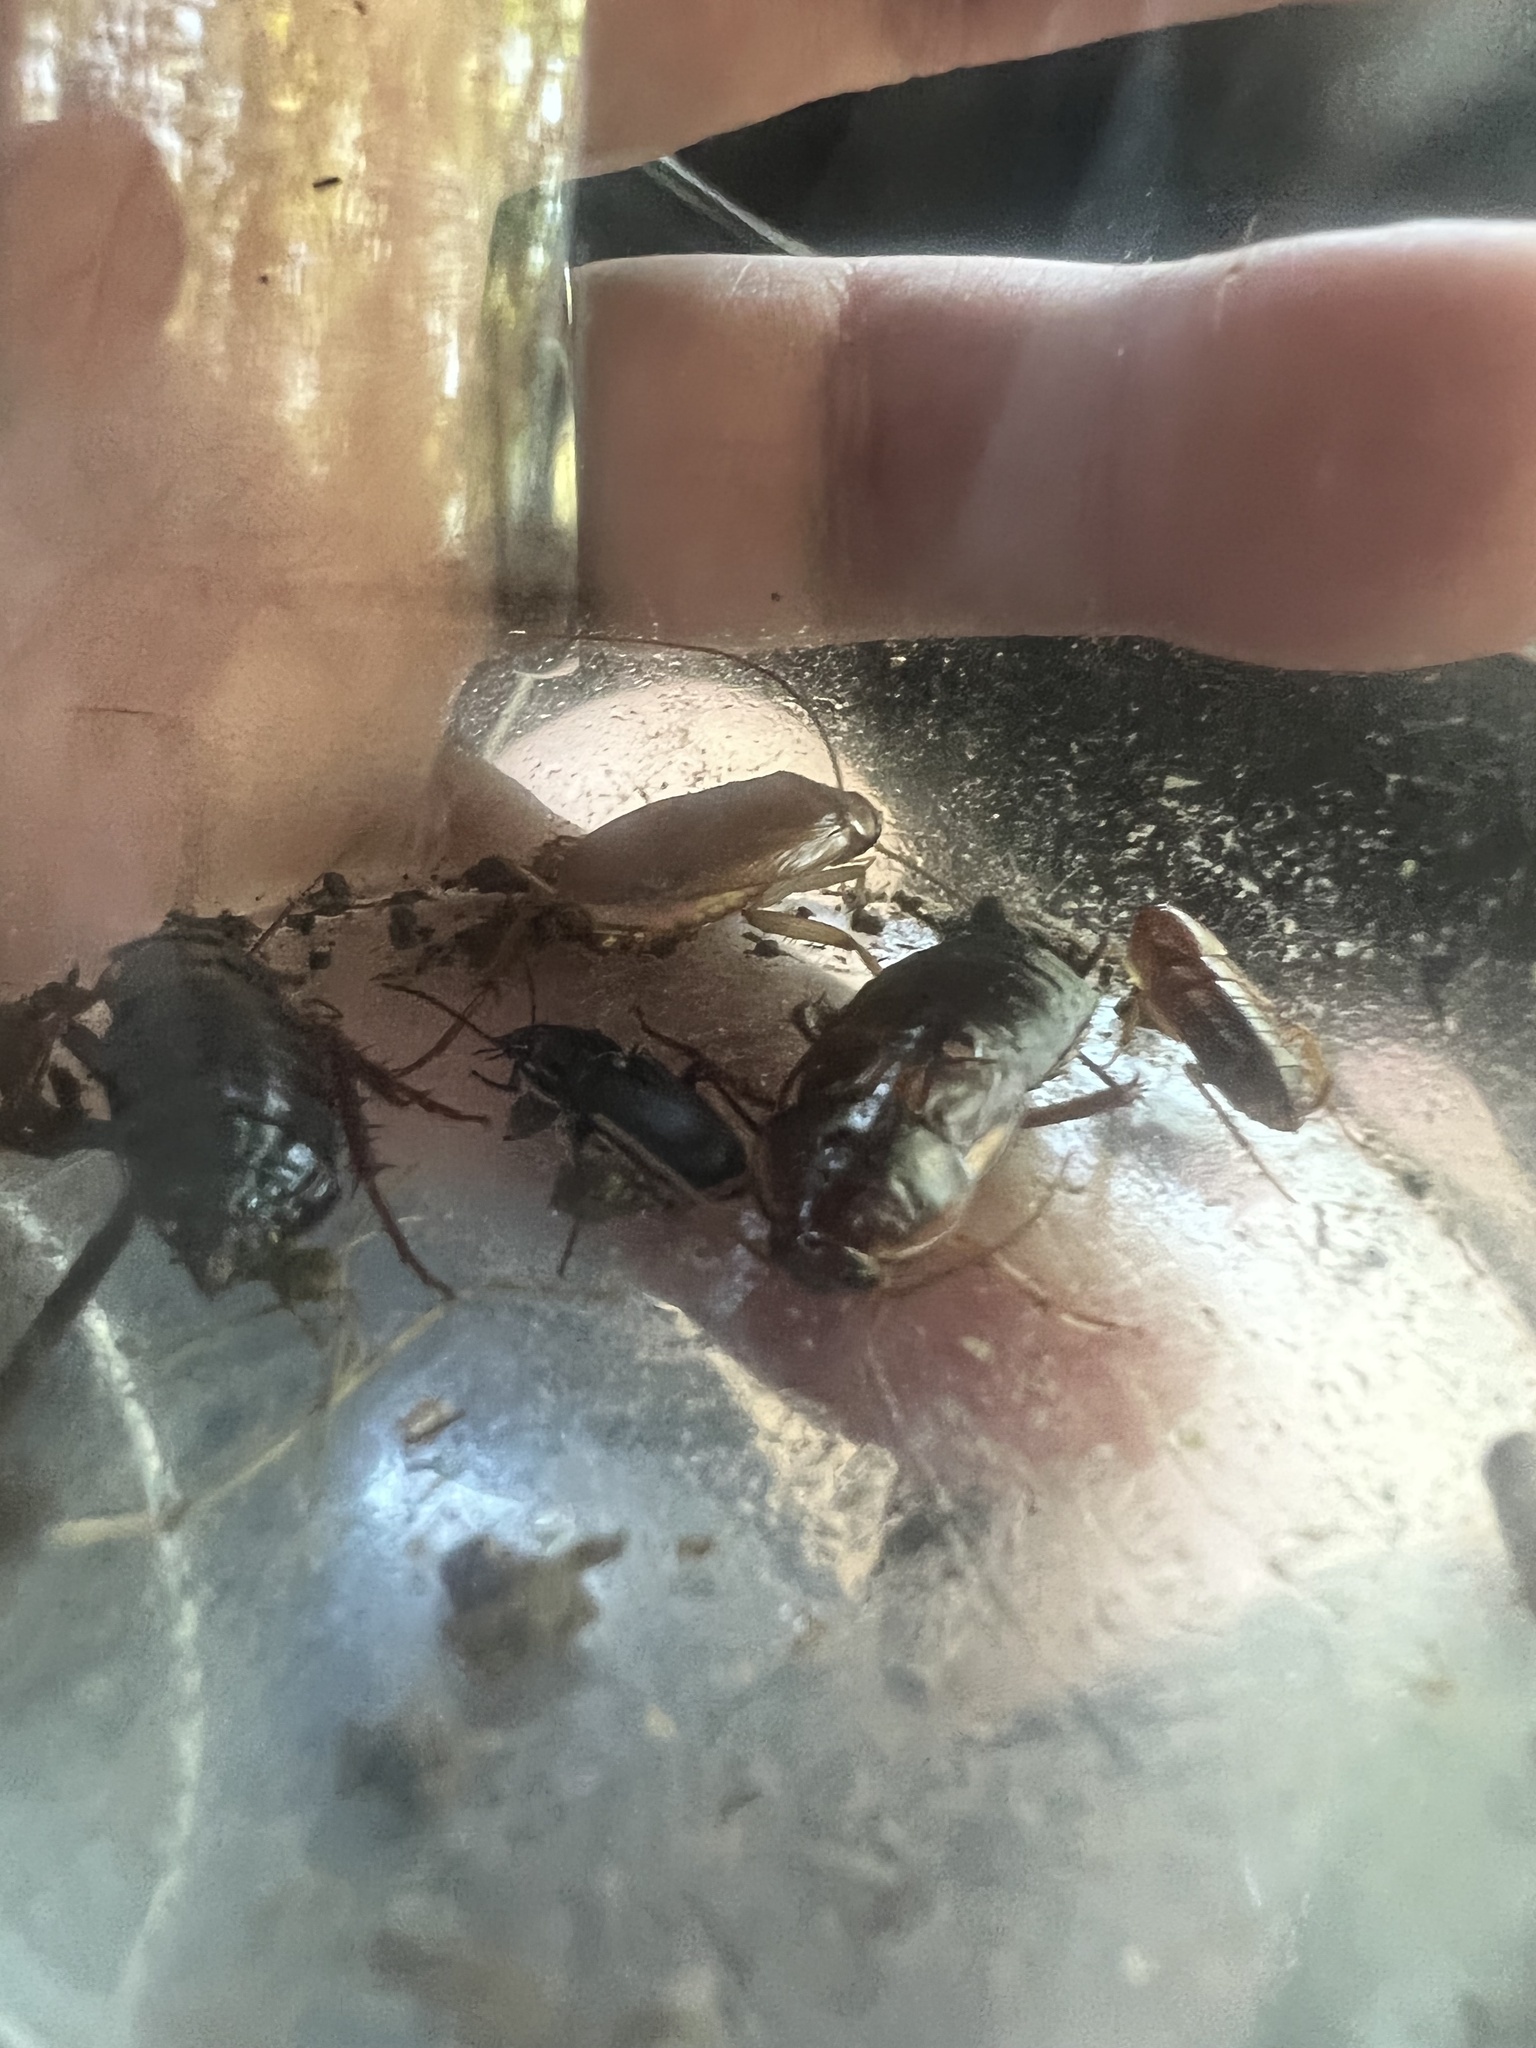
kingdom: Animalia
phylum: Arthropoda
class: Insecta
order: Blattodea
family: Blattidae
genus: Periplaneta
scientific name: Periplaneta lateralis
